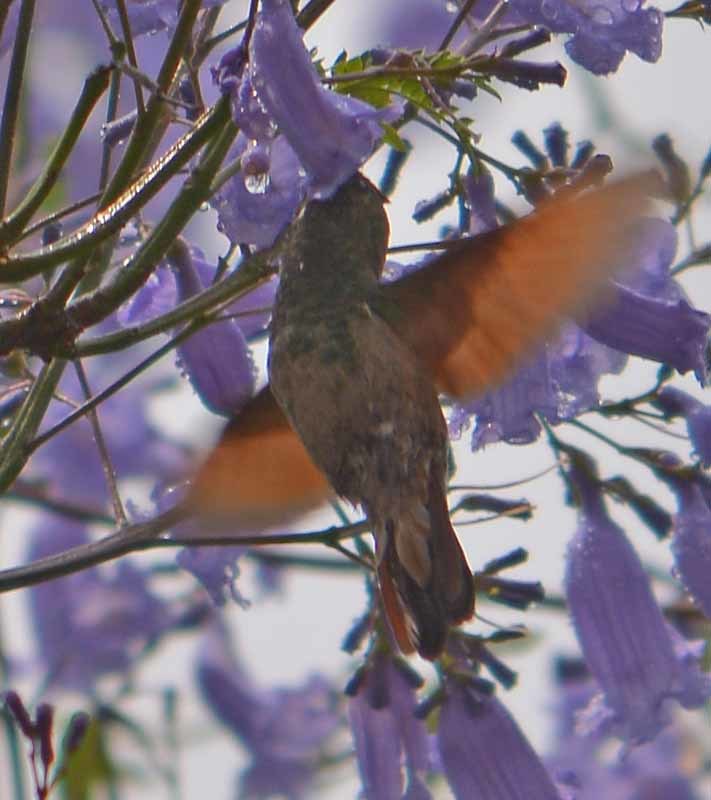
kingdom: Animalia
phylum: Chordata
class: Aves
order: Apodiformes
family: Trochilidae
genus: Saucerottia
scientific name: Saucerottia beryllina
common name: Berylline hummingbird
